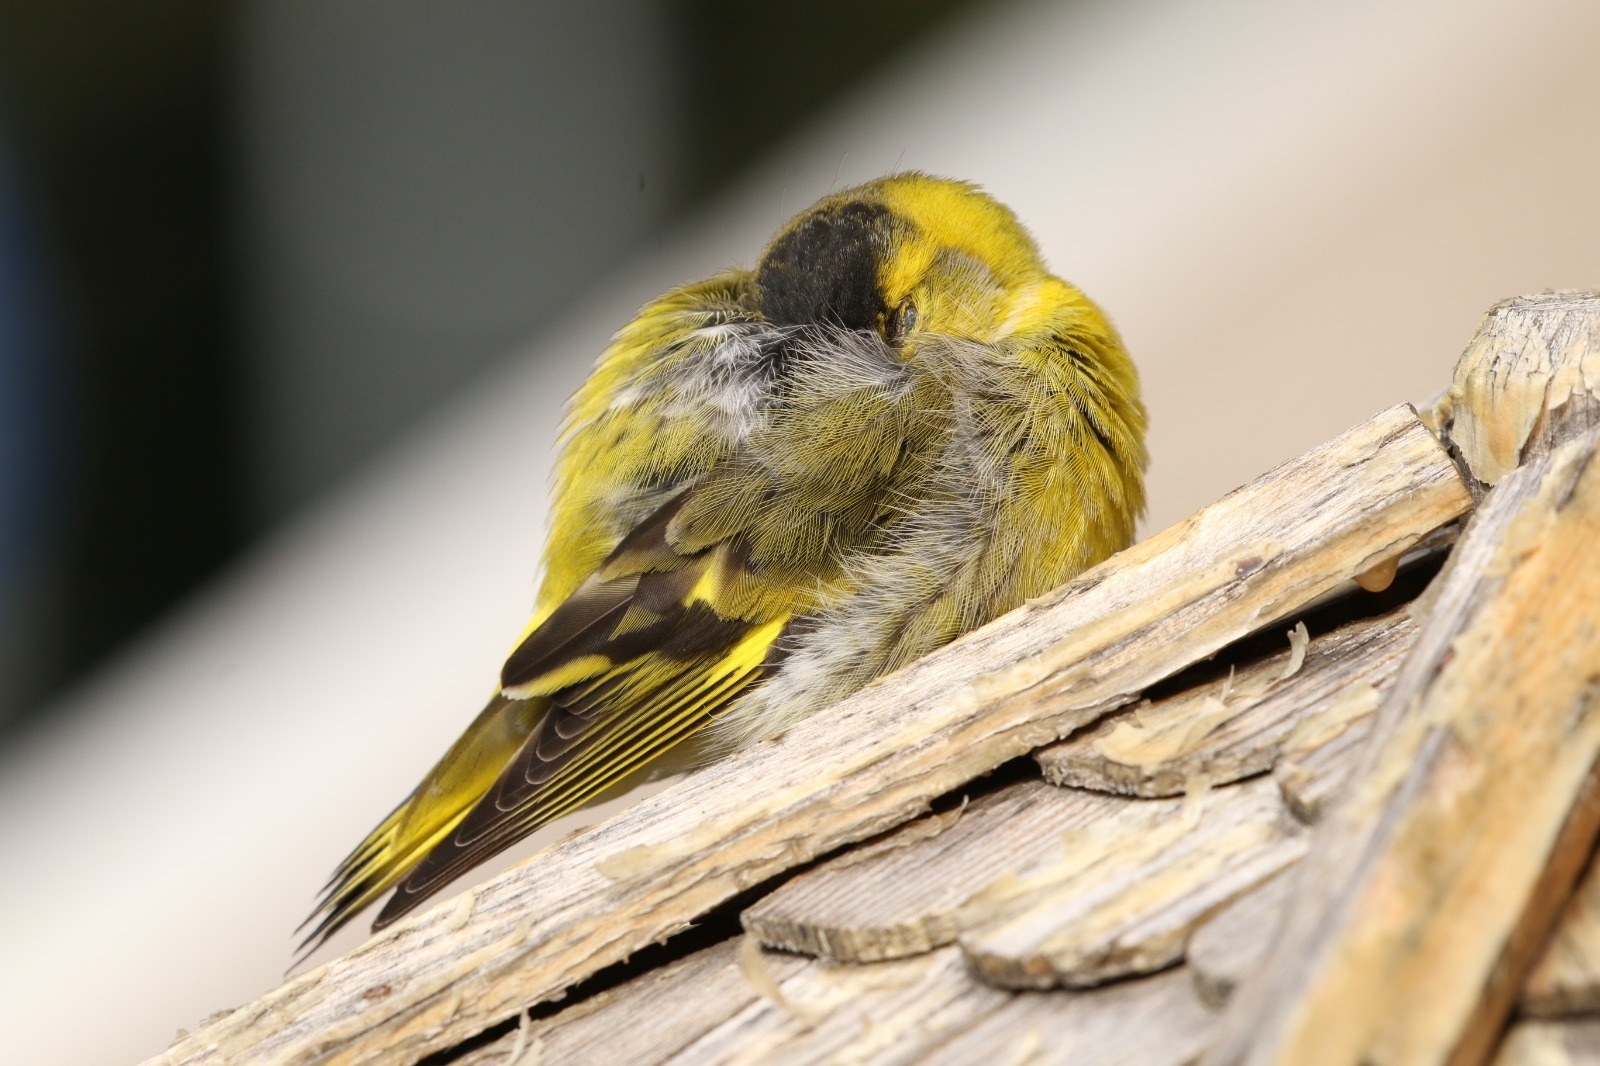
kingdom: Animalia
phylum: Chordata
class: Aves
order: Passeriformes
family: Fringillidae
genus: Spinus
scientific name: Spinus spinus
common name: Eurasian siskin
